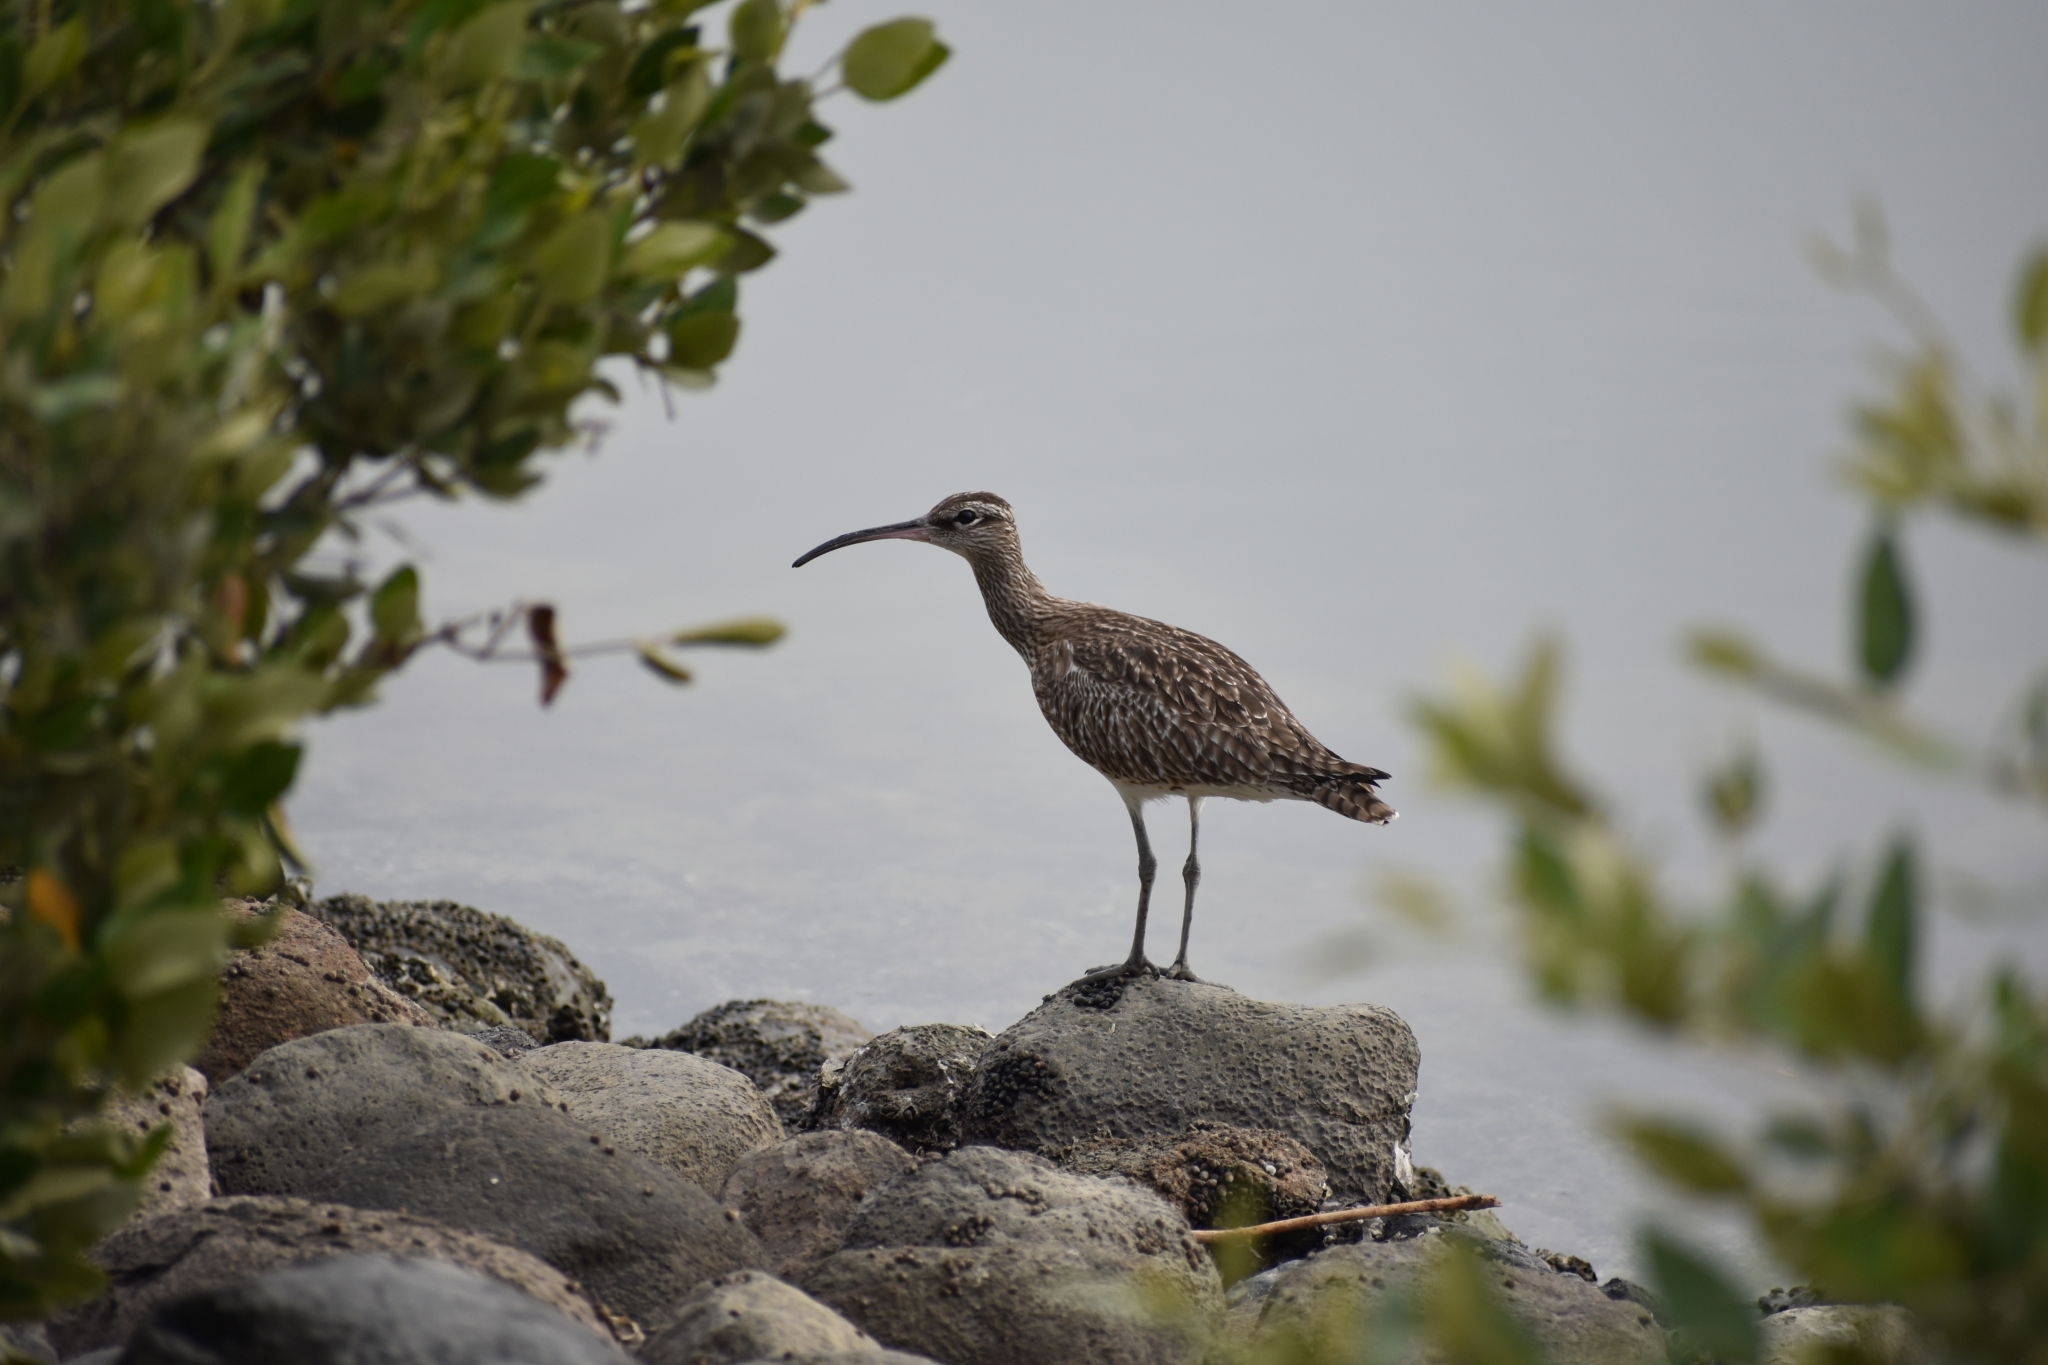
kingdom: Animalia
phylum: Chordata
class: Aves
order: Charadriiformes
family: Scolopacidae
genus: Numenius
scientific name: Numenius phaeopus
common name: Whimbrel
